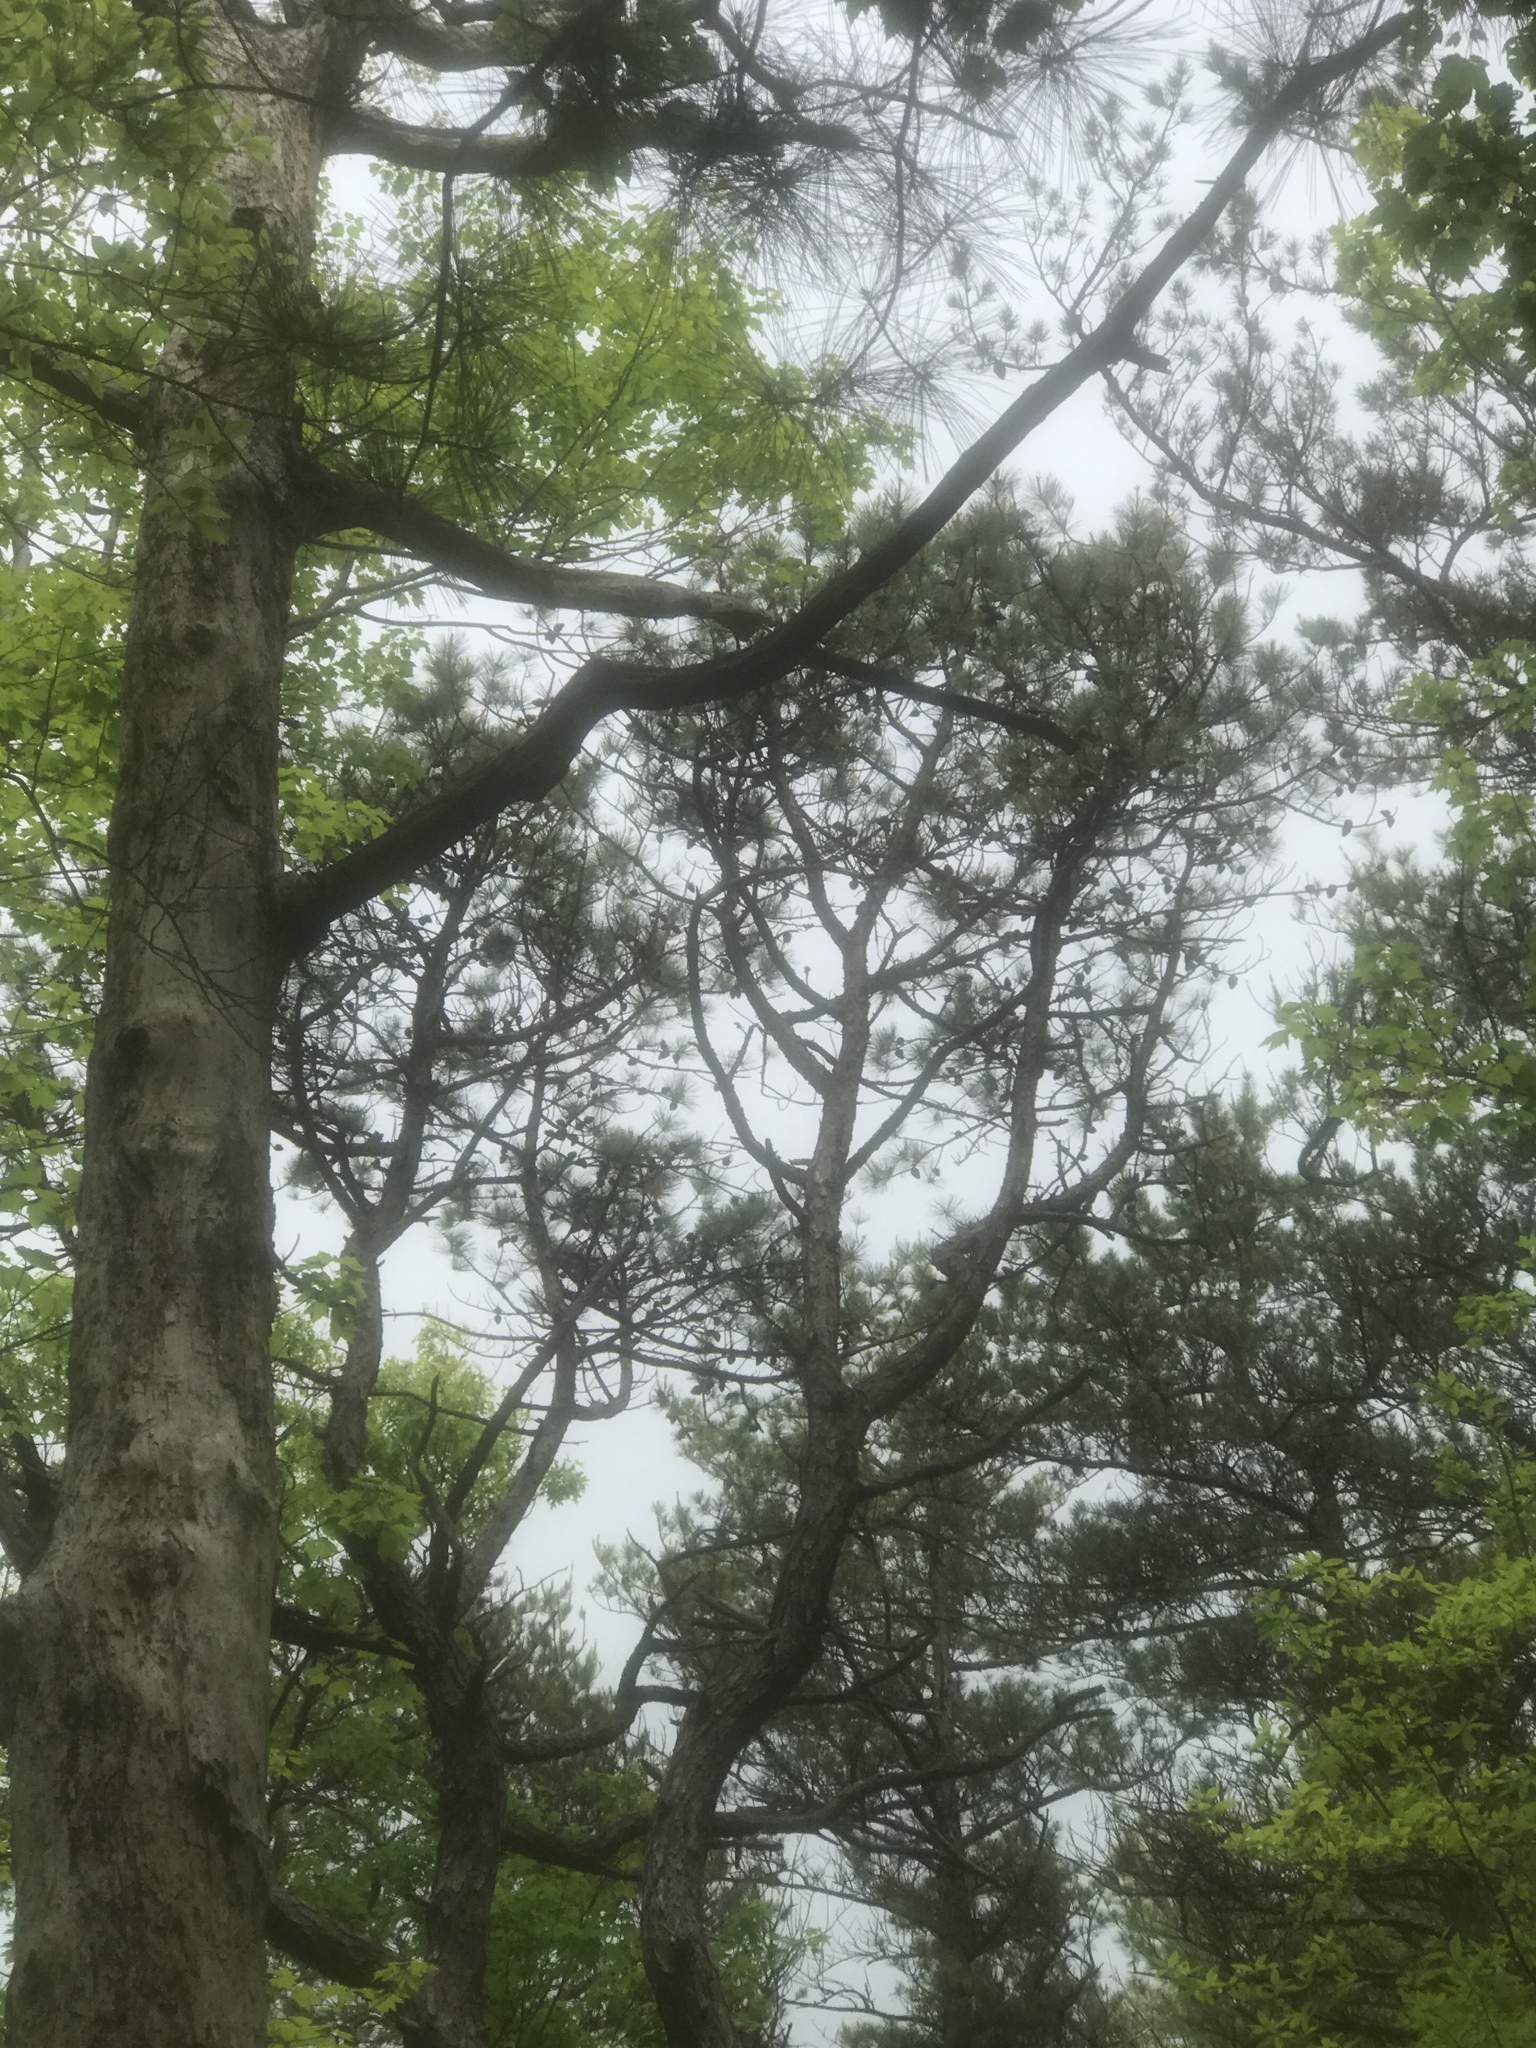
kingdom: Plantae
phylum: Tracheophyta
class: Pinopsida
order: Pinales
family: Pinaceae
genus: Pinus
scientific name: Pinus rigida
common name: Pitch pine
